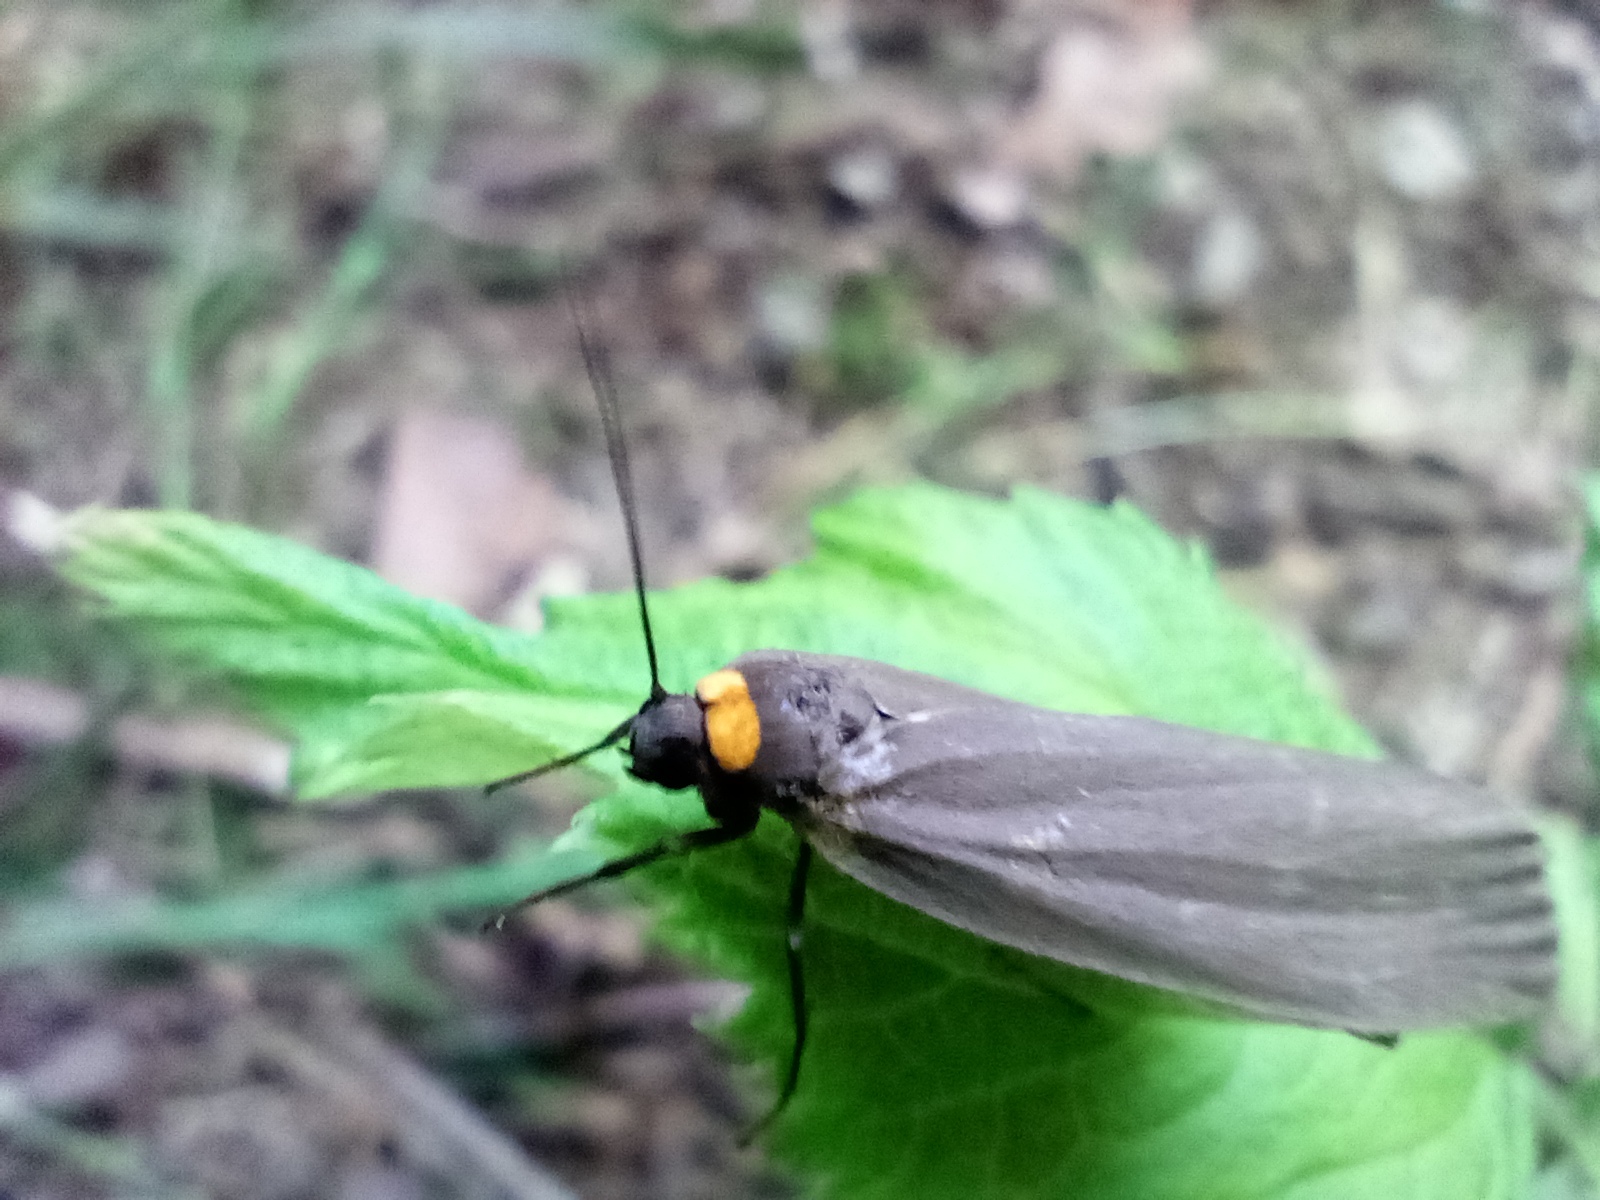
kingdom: Animalia
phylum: Arthropoda
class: Insecta
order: Lepidoptera
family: Erebidae
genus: Atolmis
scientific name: Atolmis rubricollis
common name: Red-necked footman
